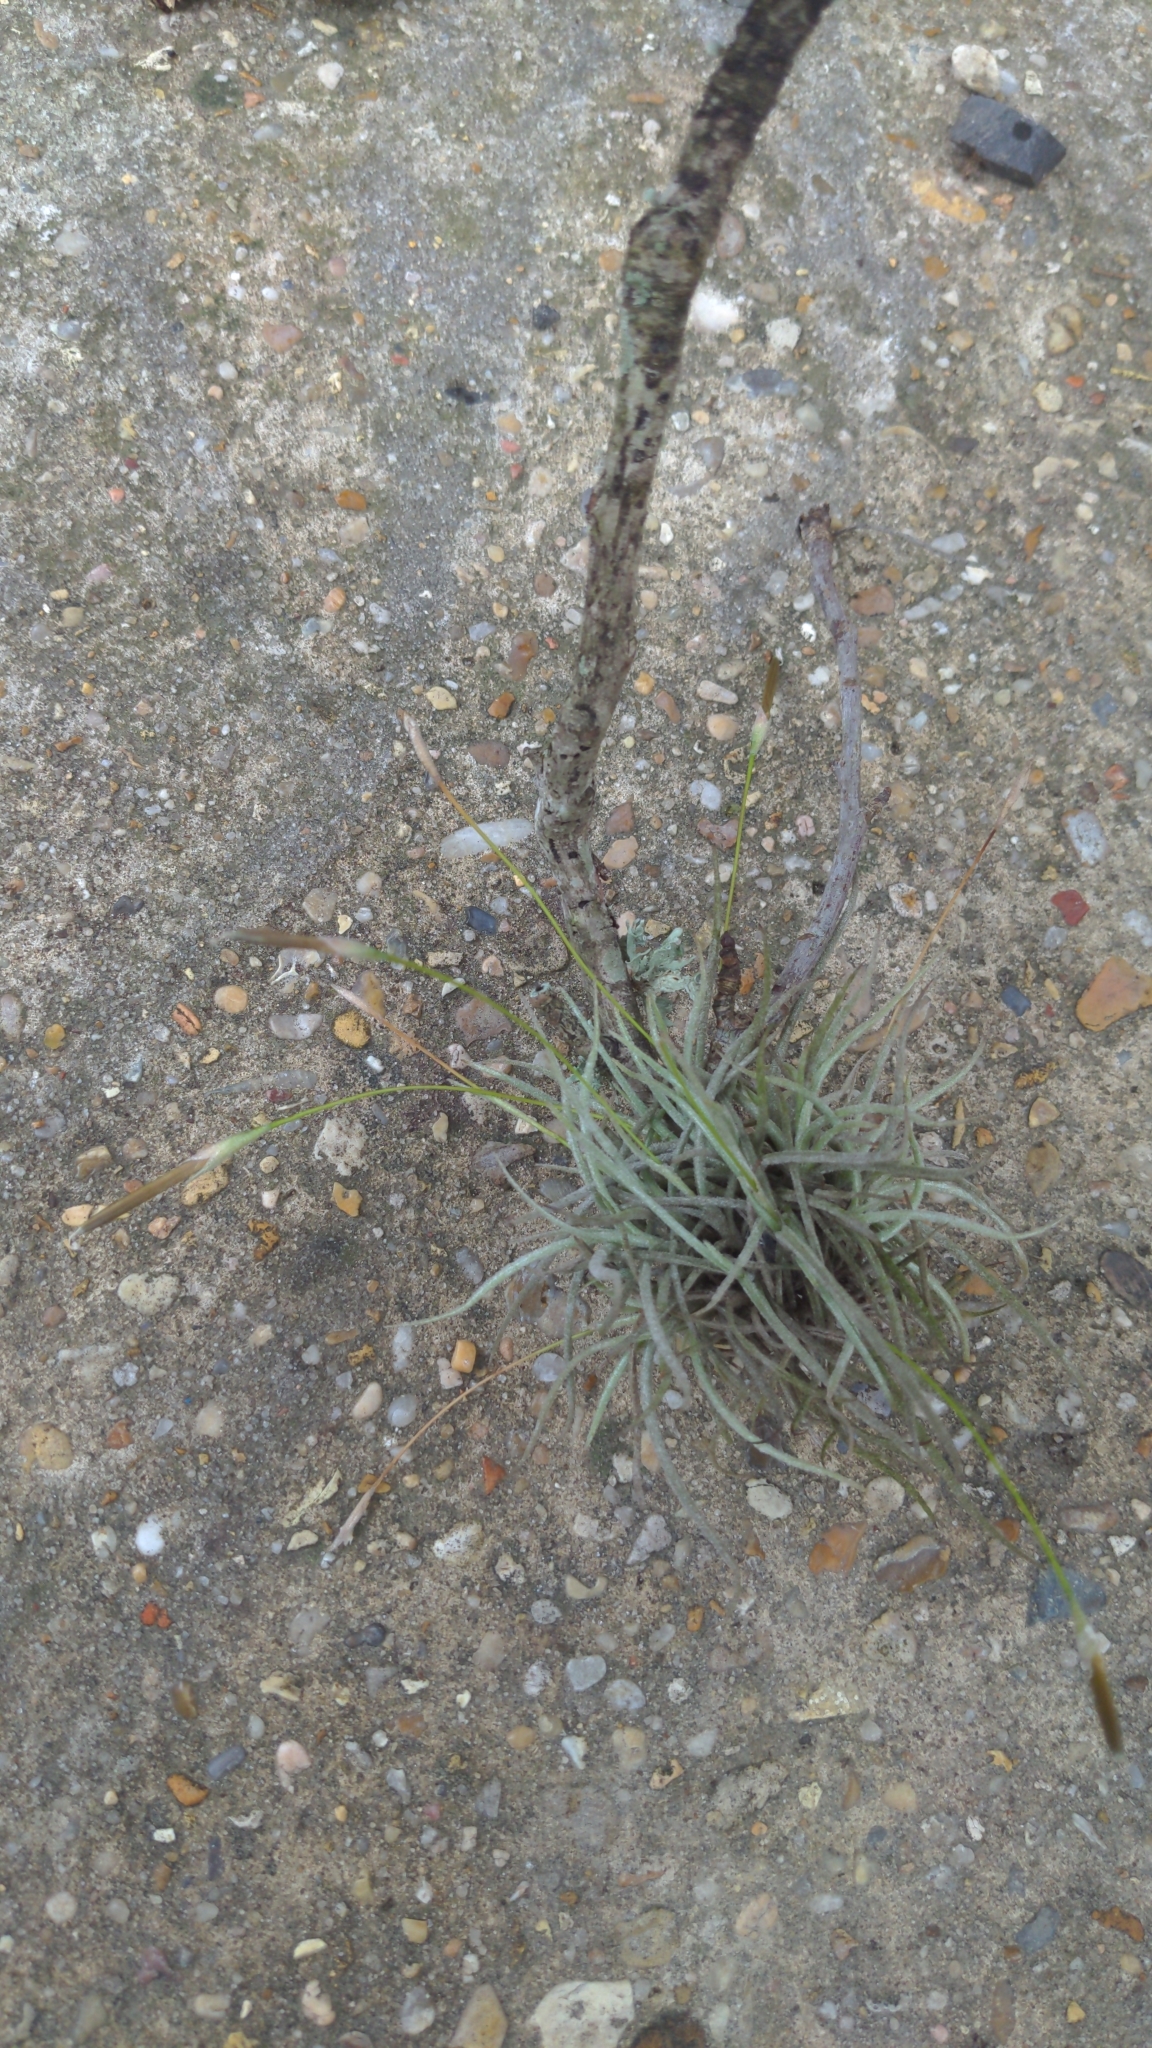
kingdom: Plantae
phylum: Tracheophyta
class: Liliopsida
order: Poales
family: Bromeliaceae
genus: Tillandsia
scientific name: Tillandsia recurvata
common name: Small ballmoss
